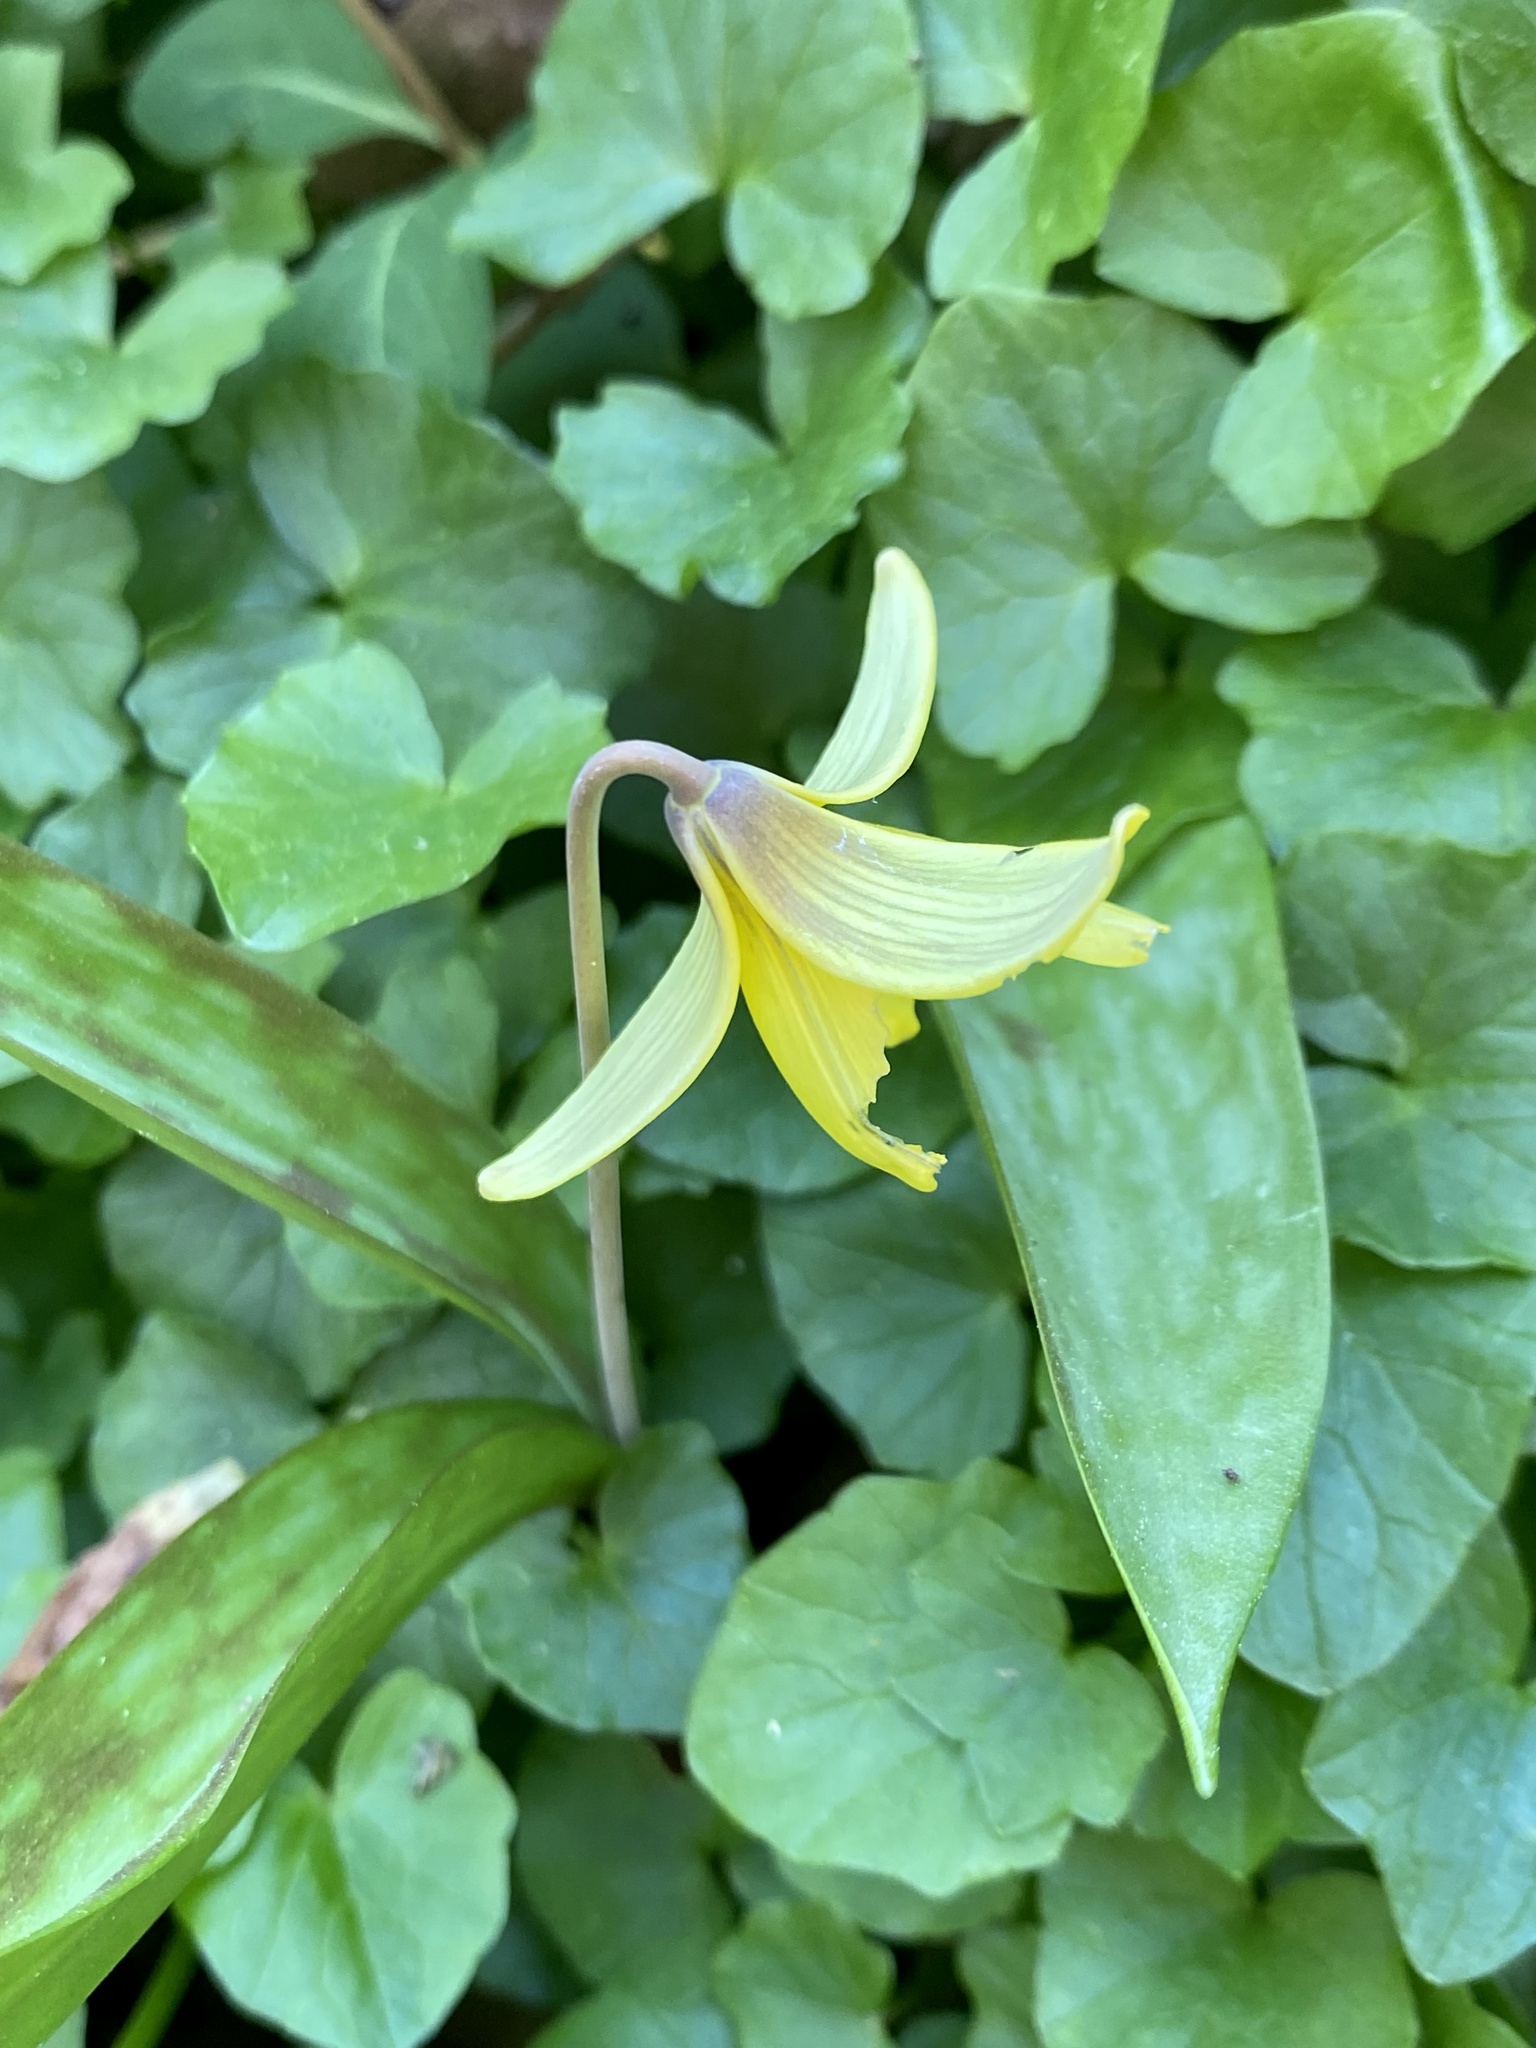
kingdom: Plantae
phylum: Tracheophyta
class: Liliopsida
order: Liliales
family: Liliaceae
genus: Erythronium
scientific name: Erythronium americanum
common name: Yellow adder's-tongue
